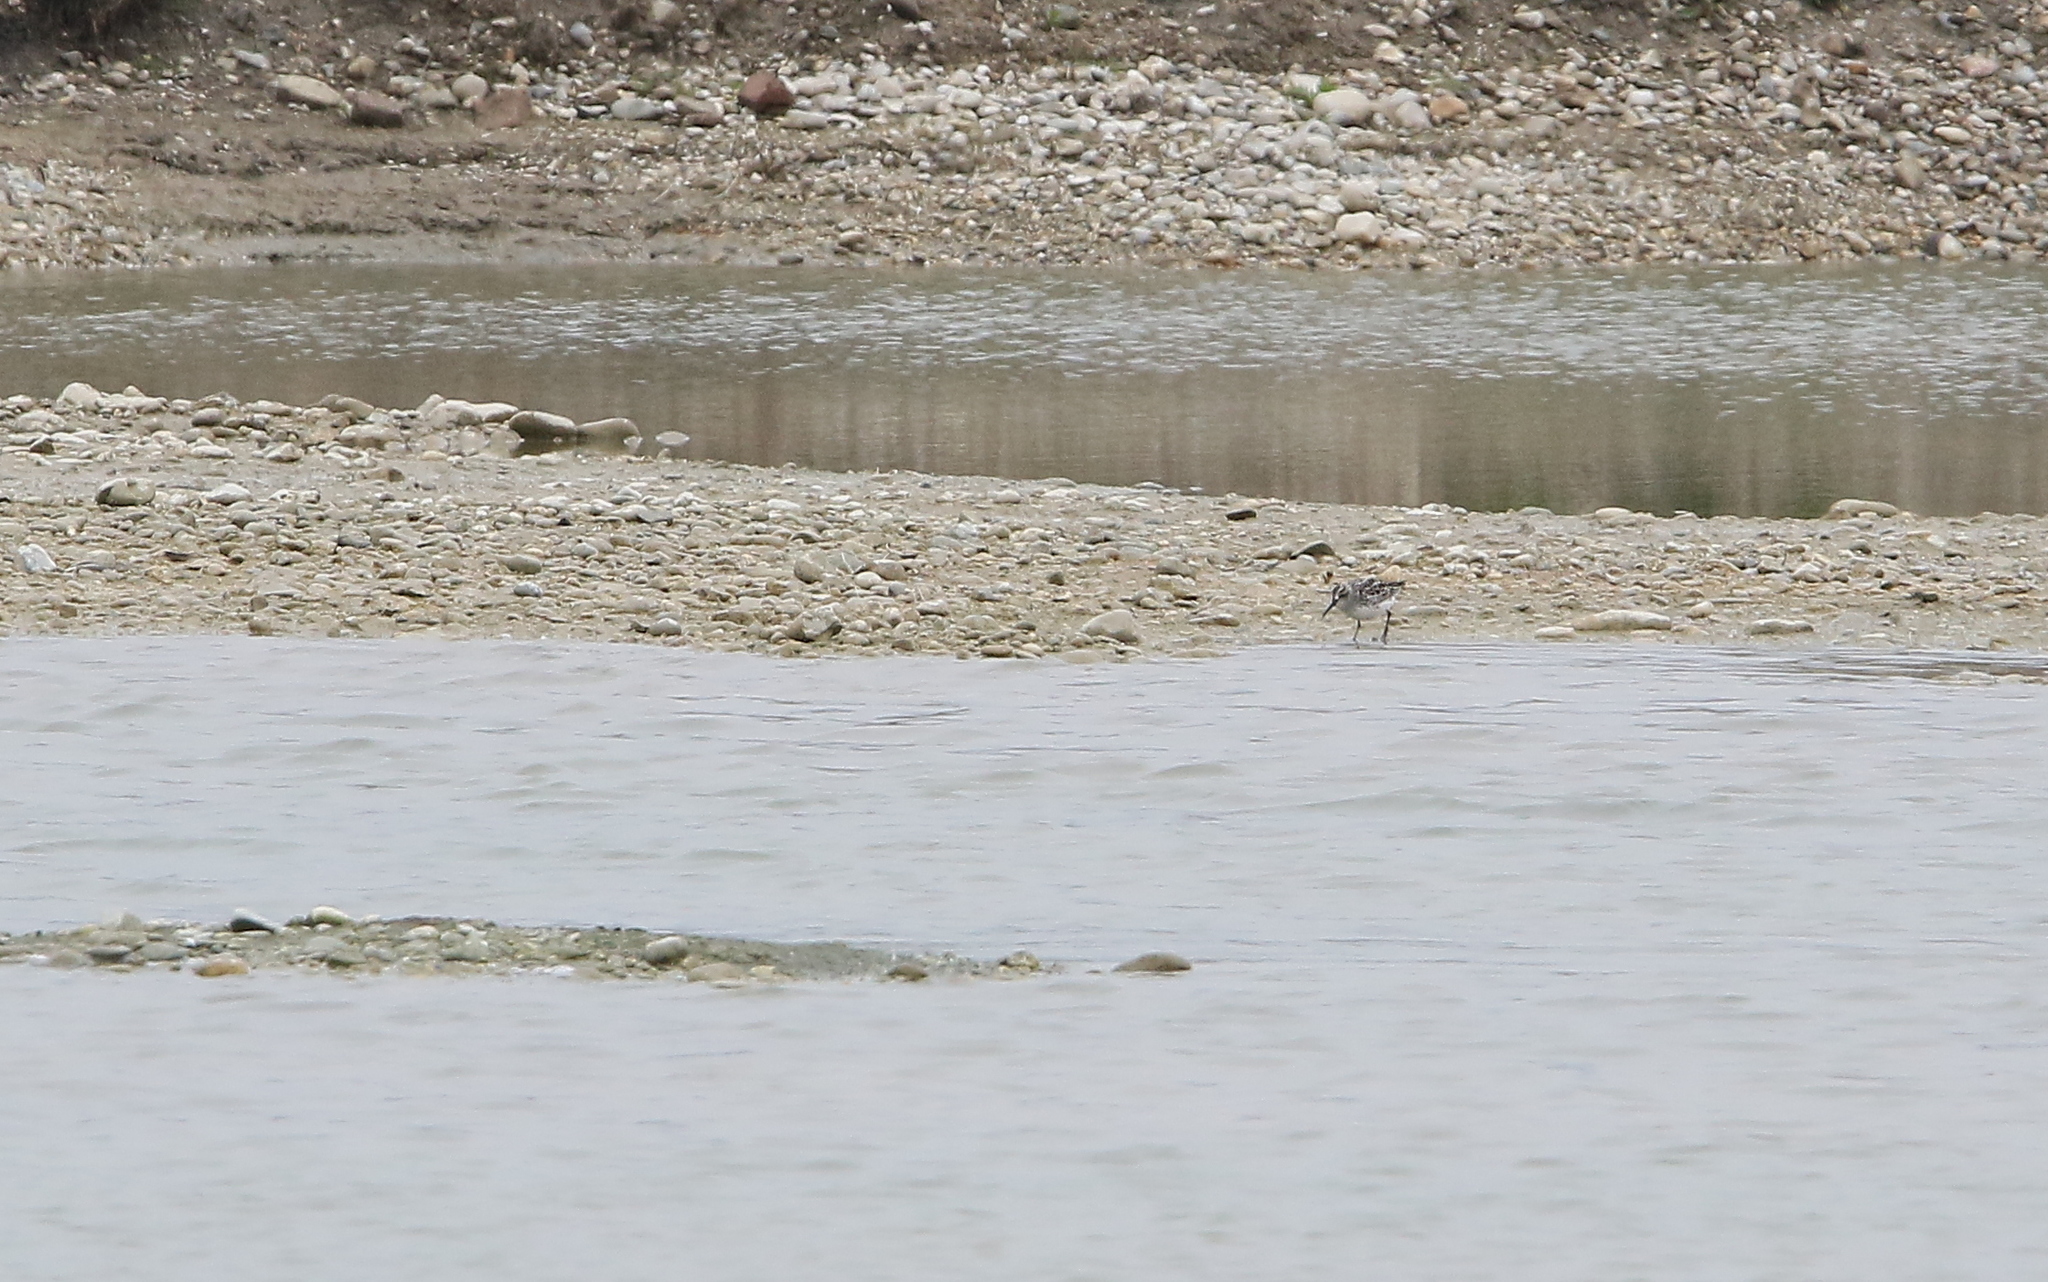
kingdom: Animalia
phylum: Chordata
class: Aves
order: Charadriiformes
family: Scolopacidae
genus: Calidris
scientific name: Calidris falcinellus
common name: Broad-billed sandpiper
